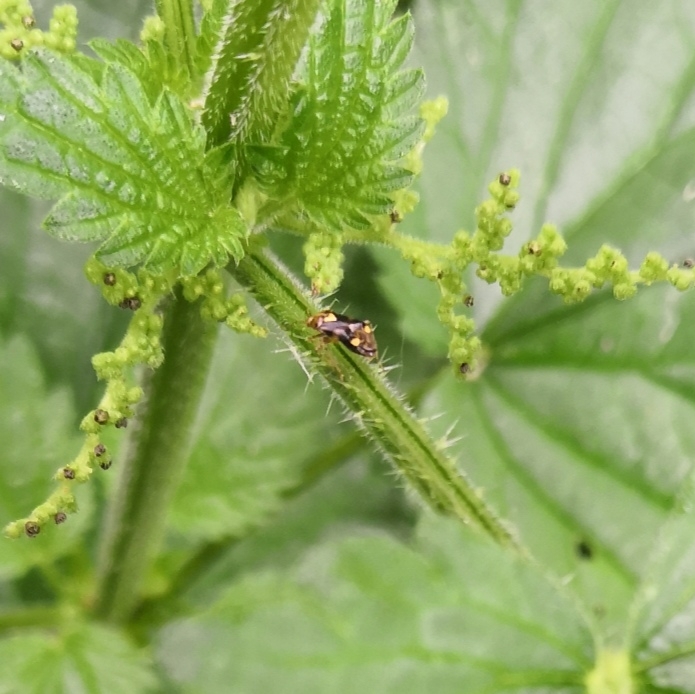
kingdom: Animalia
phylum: Arthropoda
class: Insecta
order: Hemiptera
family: Miridae
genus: Liocoris
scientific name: Liocoris tripustulatus
